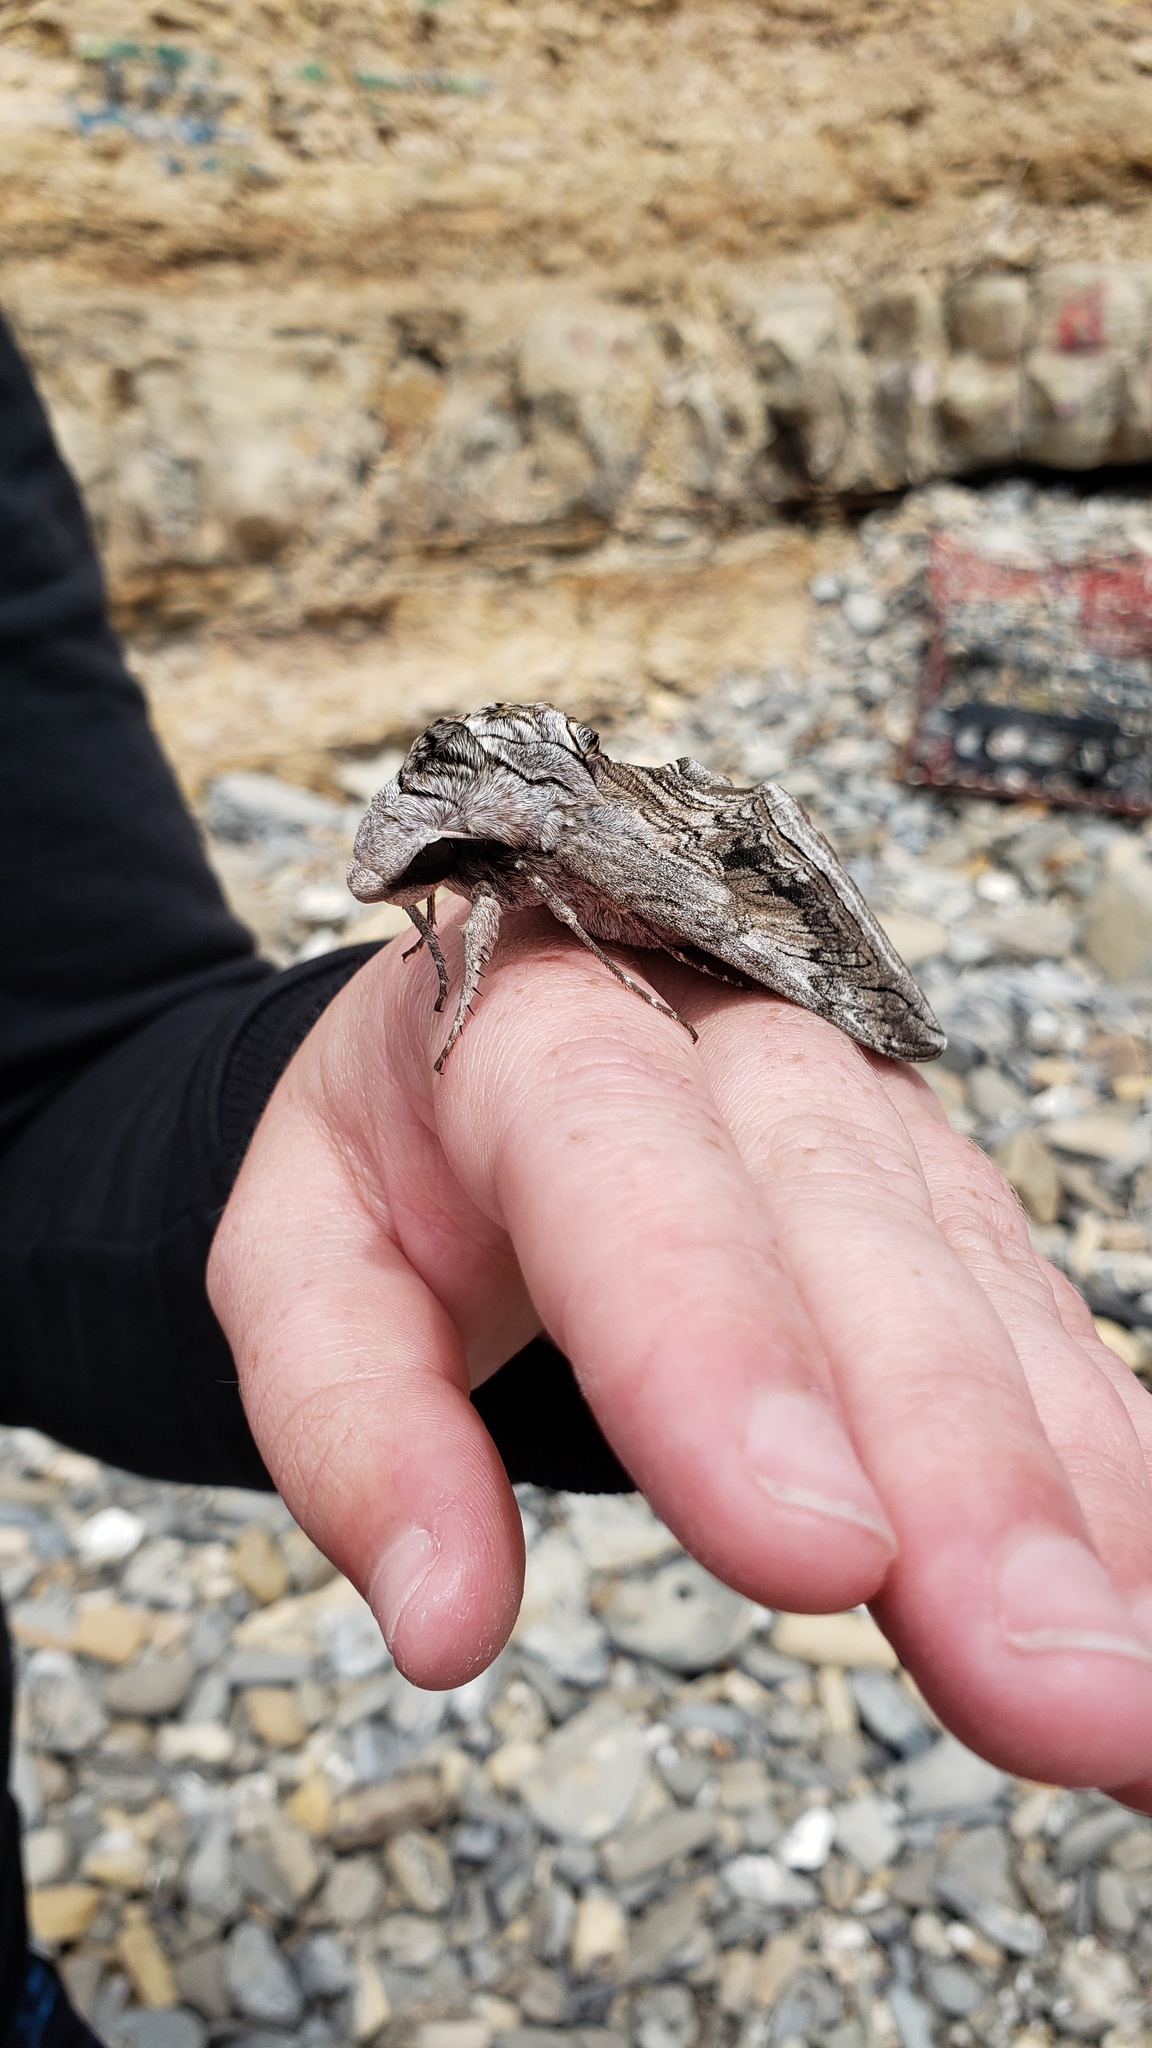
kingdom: Animalia
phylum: Arthropoda
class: Insecta
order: Lepidoptera
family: Sphingidae
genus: Manduca
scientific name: Manduca quinquemaculatus
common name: Five-spotted hawk-moth
